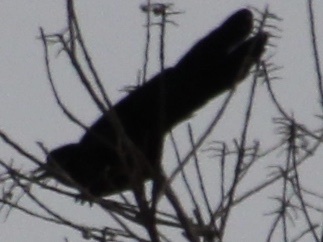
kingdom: Animalia
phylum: Chordata
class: Aves
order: Passeriformes
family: Icteridae
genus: Quiscalus
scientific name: Quiscalus major
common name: Boat-tailed grackle
